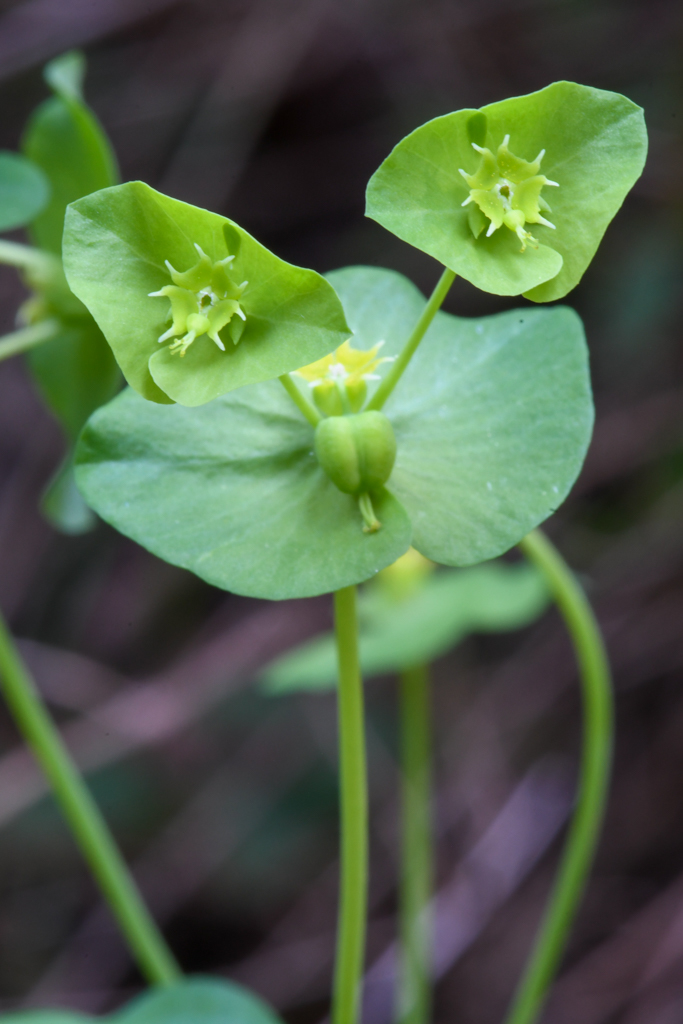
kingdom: Plantae
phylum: Tracheophyta
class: Magnoliopsida
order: Malpighiales
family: Euphorbiaceae
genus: Euphorbia
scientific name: Euphorbia crenulata
